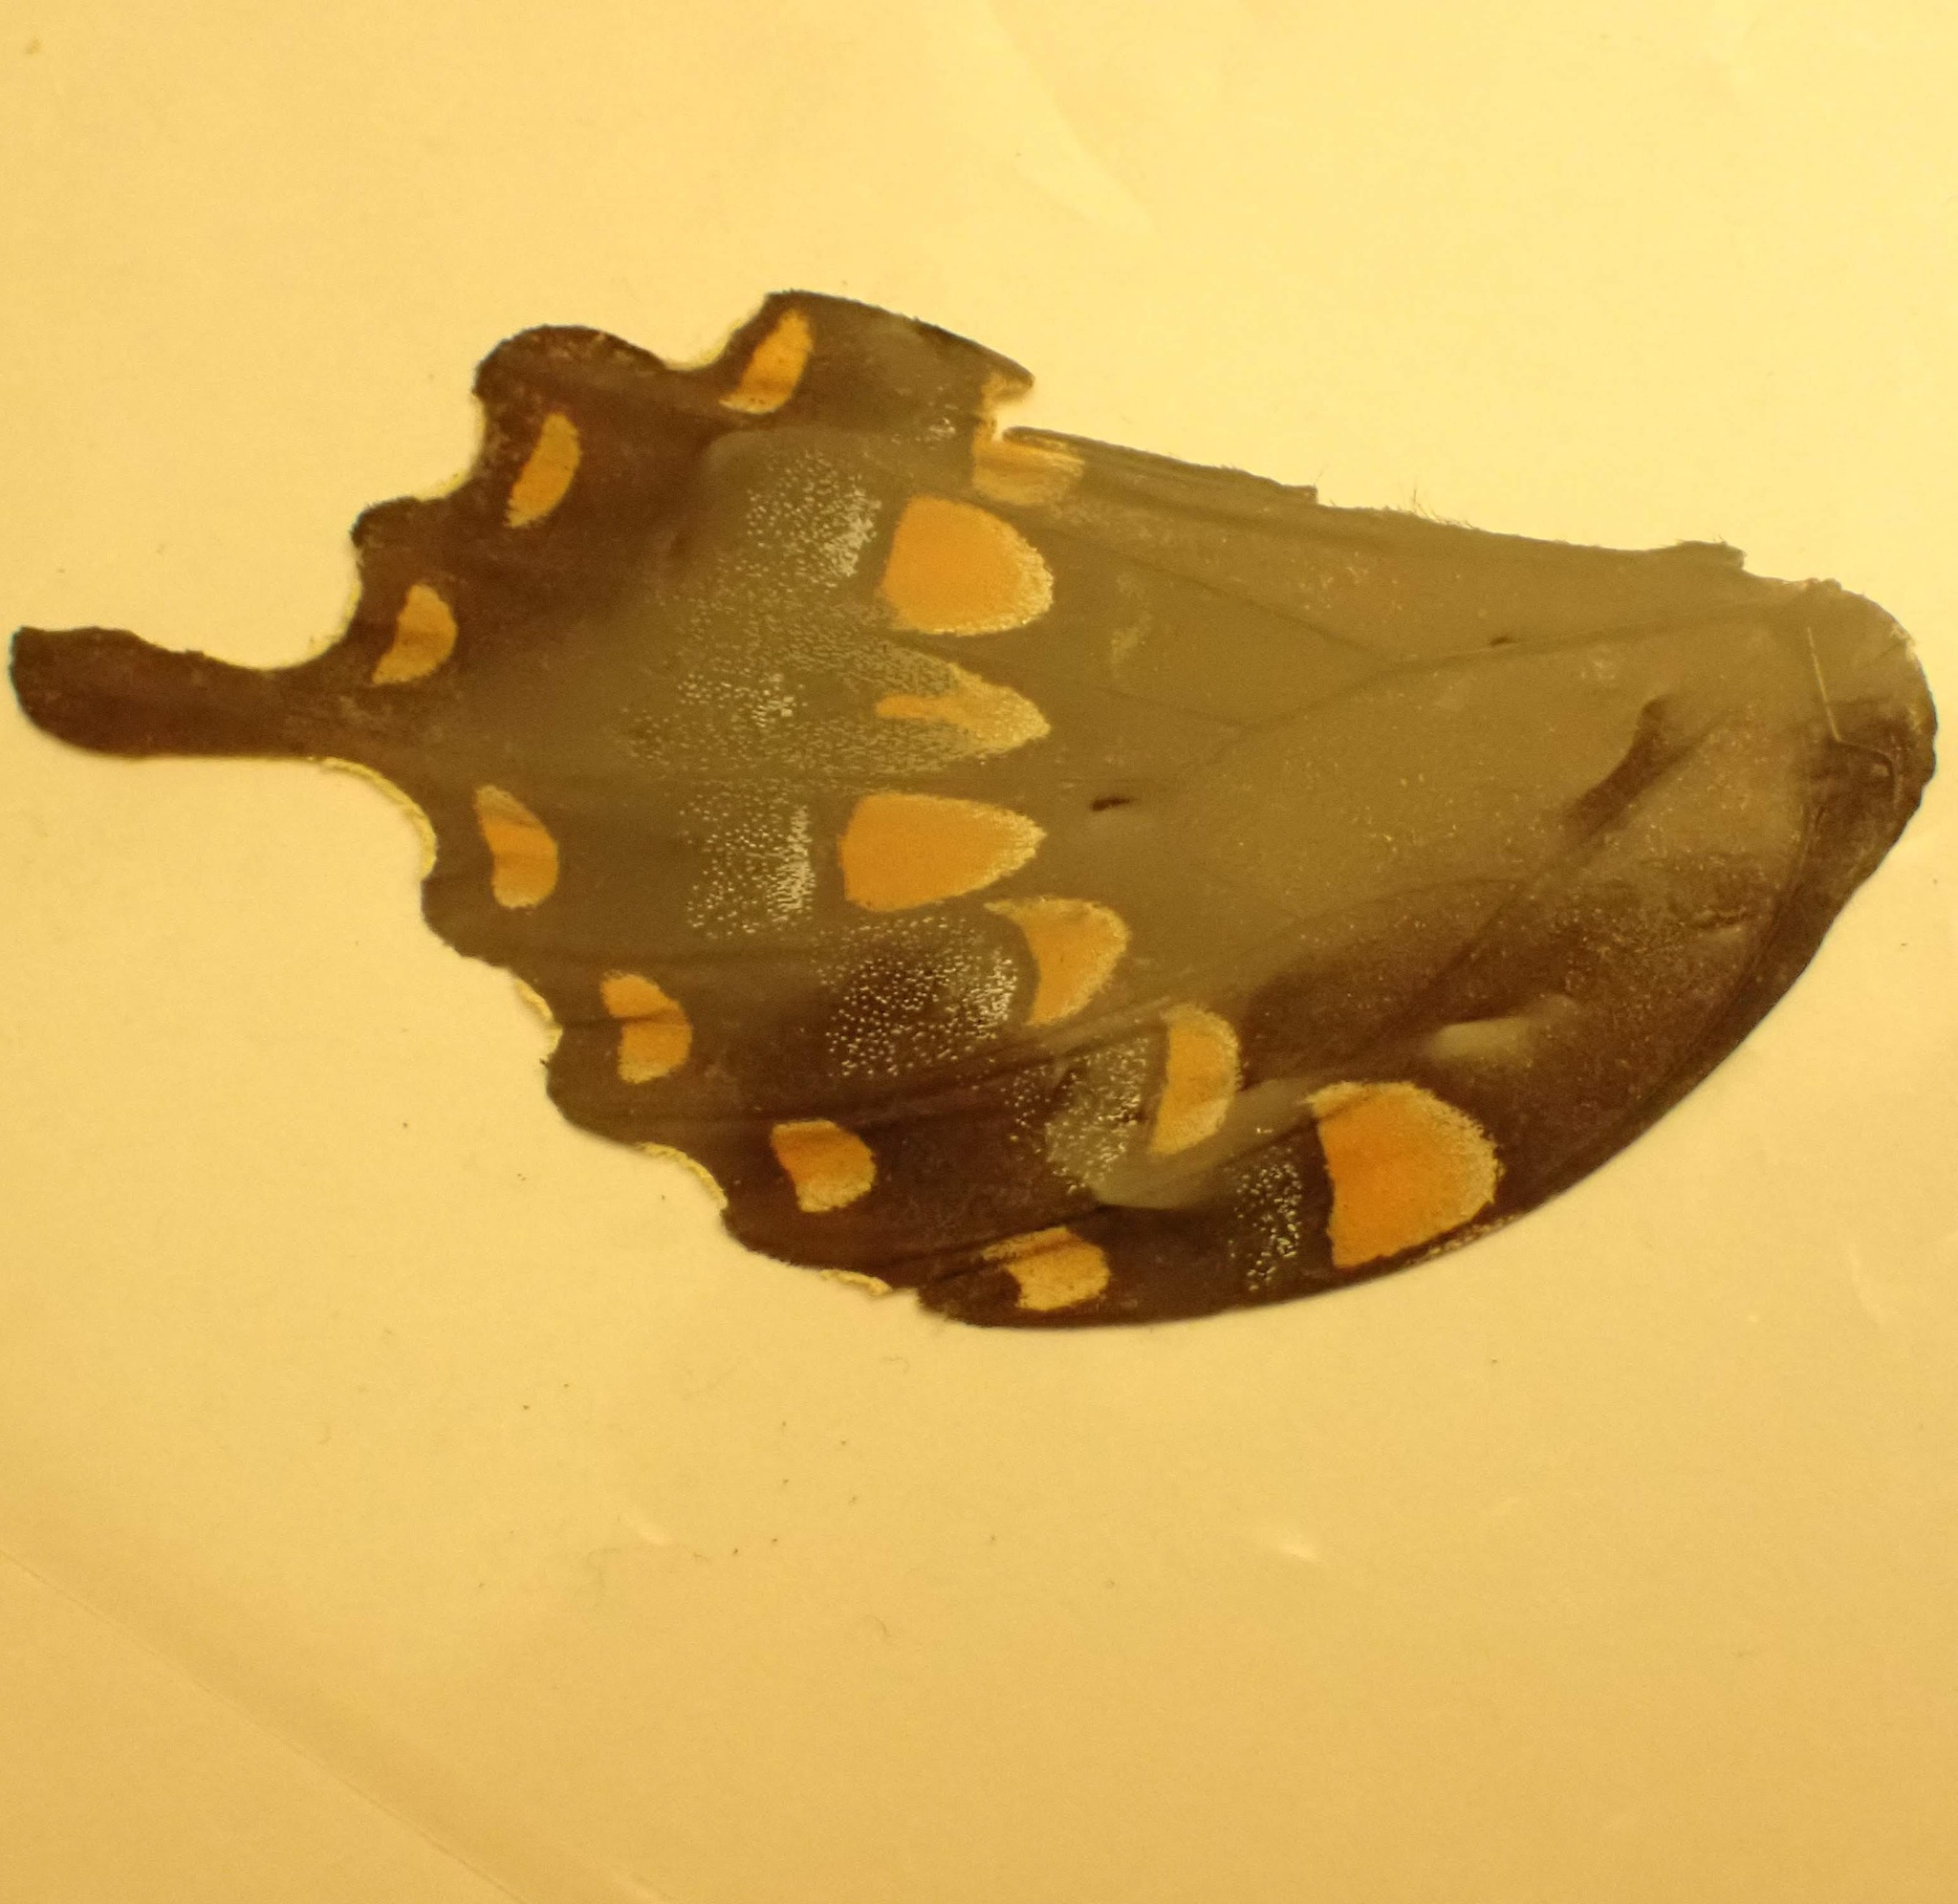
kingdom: Animalia
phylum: Arthropoda
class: Insecta
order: Lepidoptera
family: Papilionidae
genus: Papilio
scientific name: Papilio troilus
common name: Spicebush swallowtail
